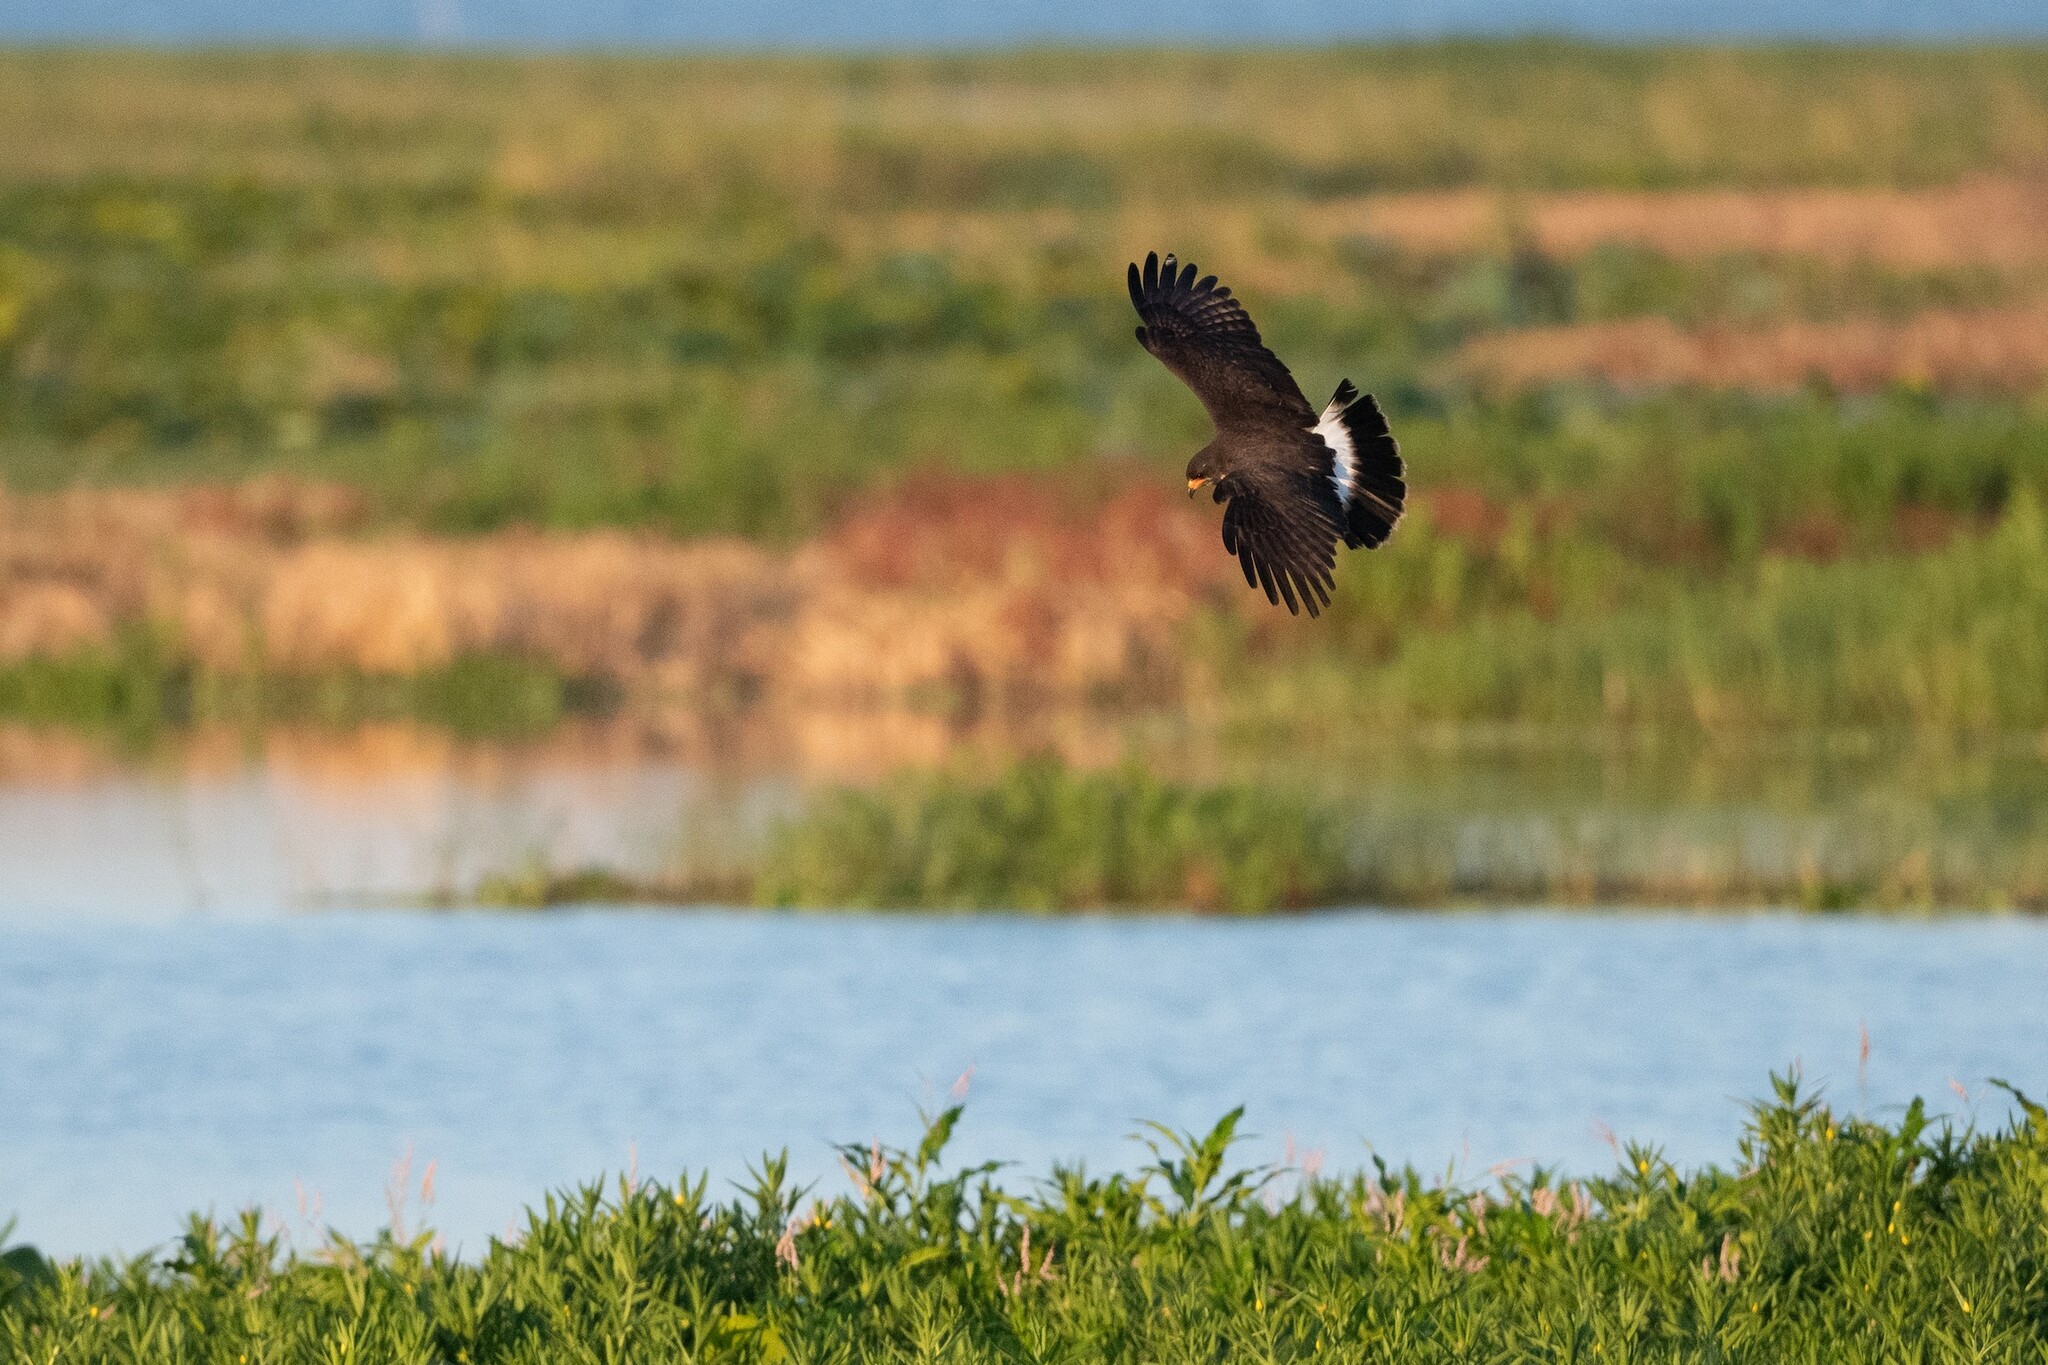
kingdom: Animalia
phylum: Chordata
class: Aves
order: Accipitriformes
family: Accipitridae
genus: Rostrhamus
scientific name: Rostrhamus sociabilis
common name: Snail kite
